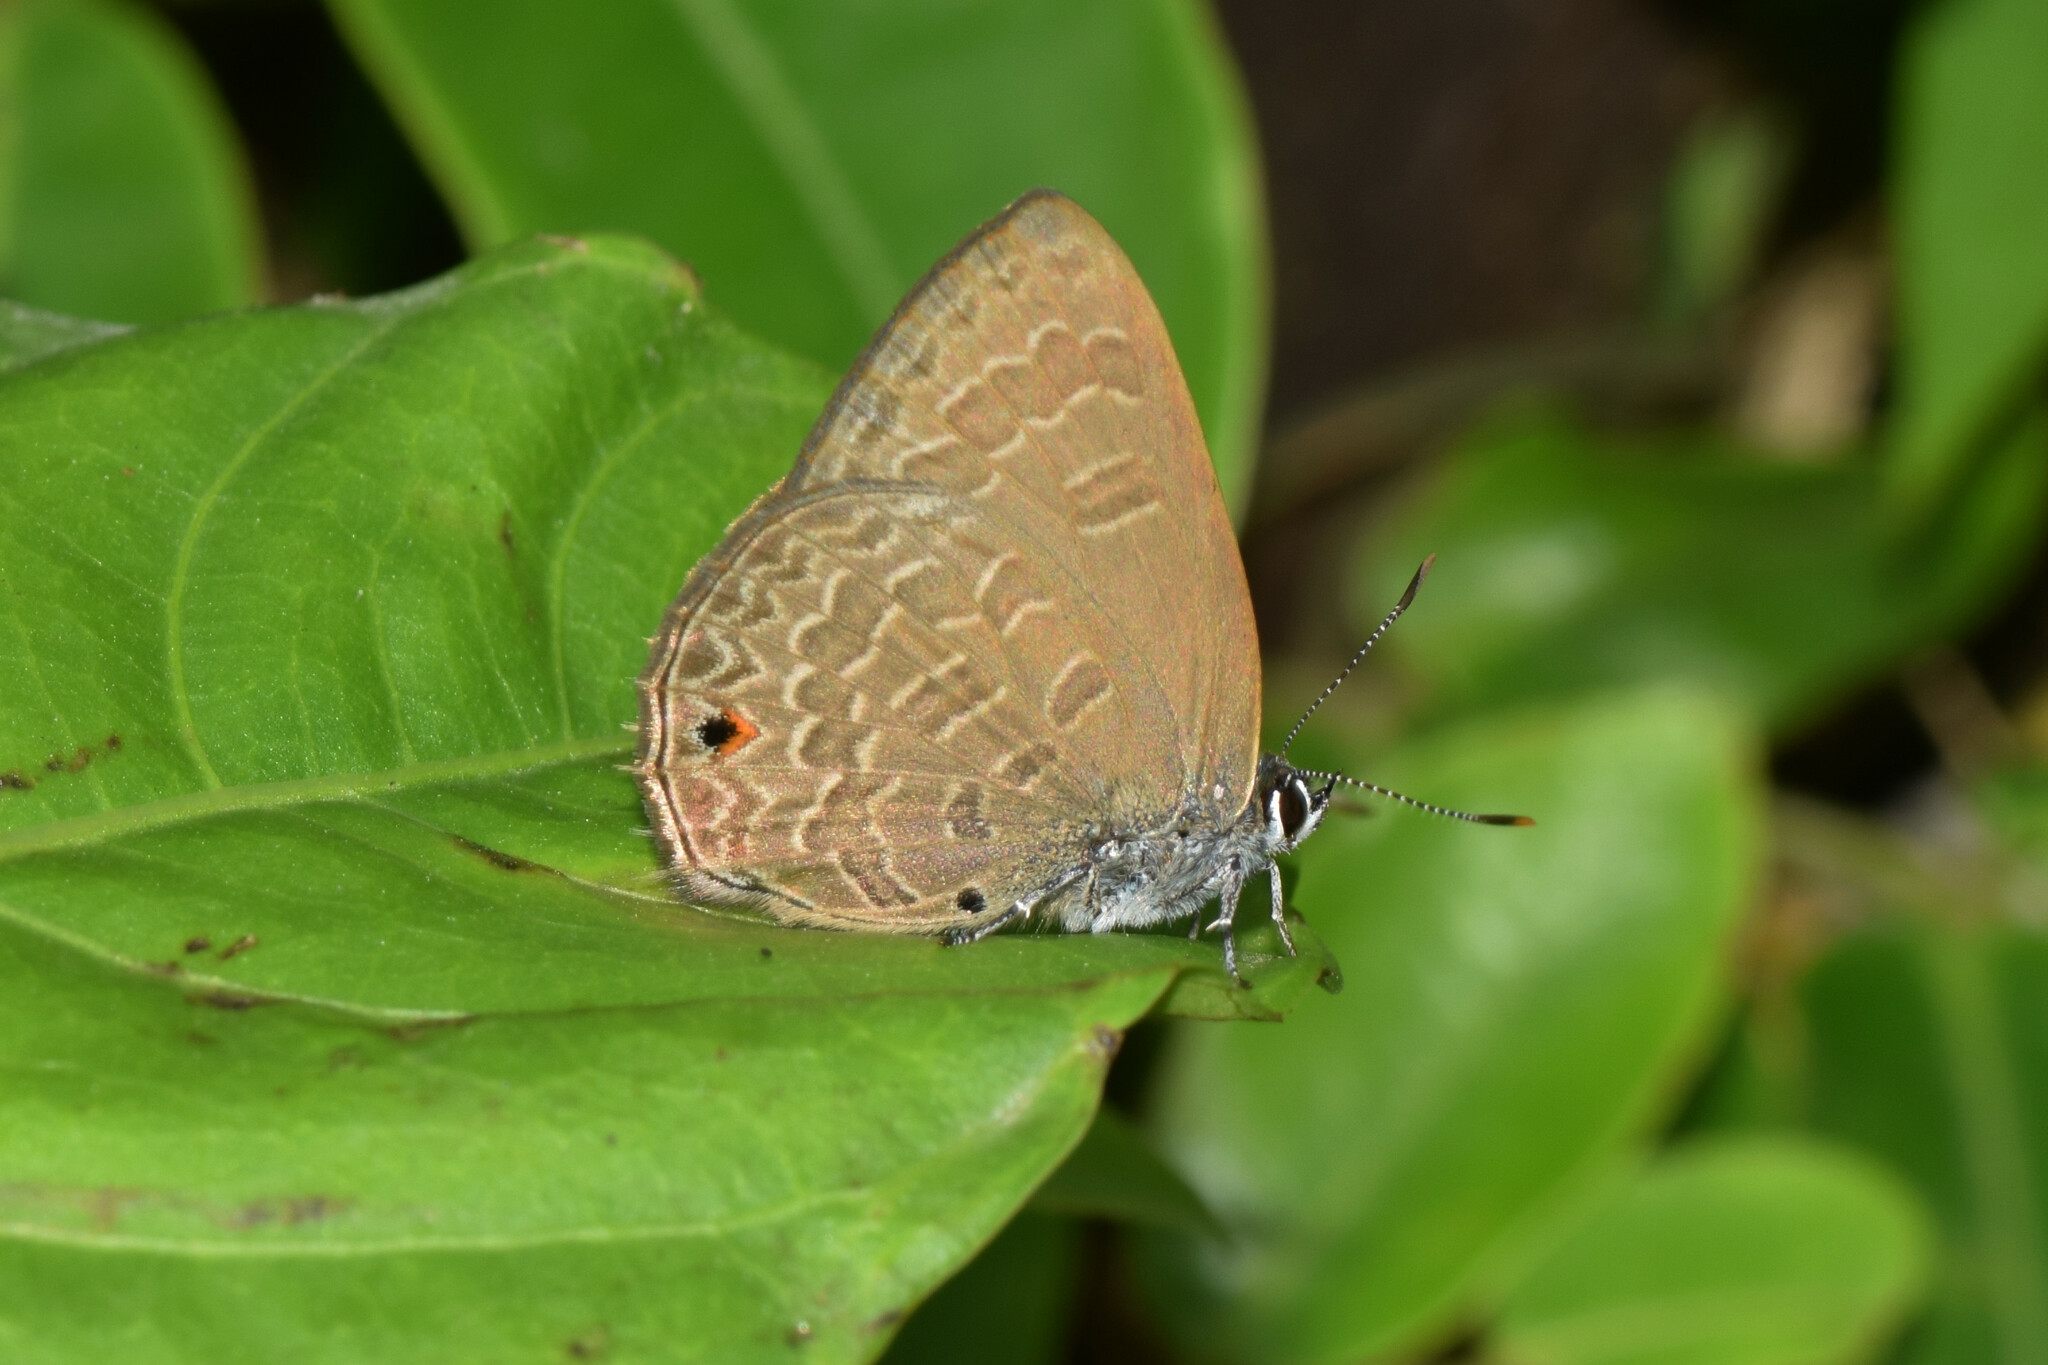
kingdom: Animalia
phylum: Arthropoda
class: Insecta
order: Lepidoptera
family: Lycaenidae
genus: Anthene
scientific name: Anthene emolus
